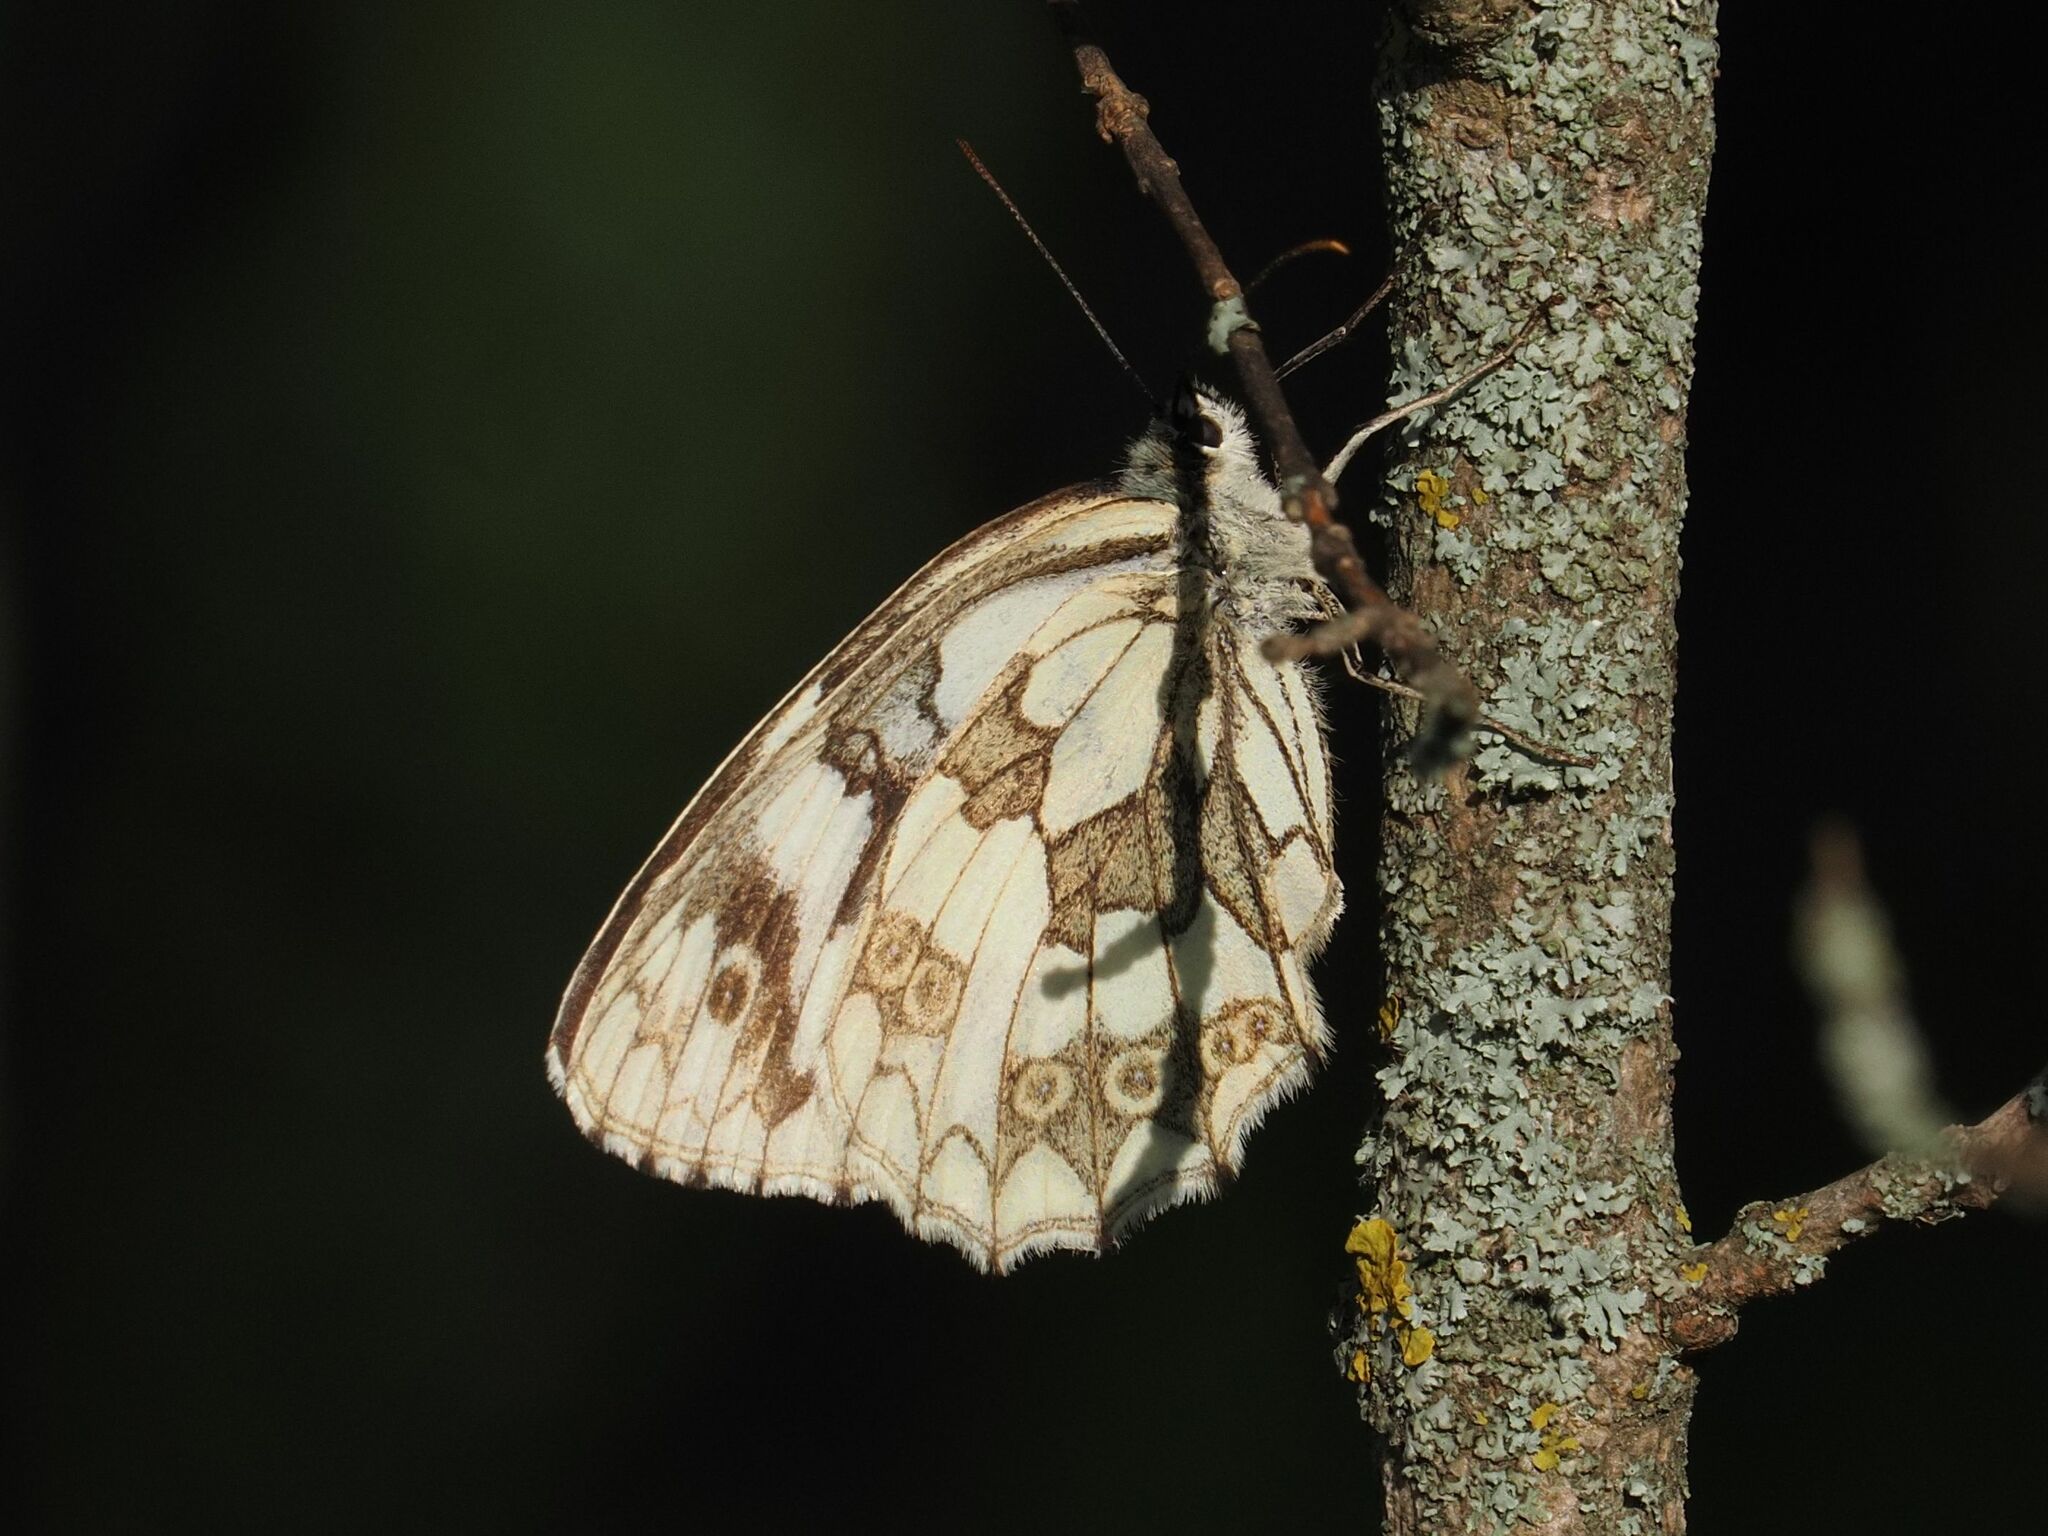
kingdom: Animalia
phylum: Arthropoda
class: Insecta
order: Lepidoptera
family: Nymphalidae
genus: Melanargia
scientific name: Melanargia galathea
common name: Marbled white
